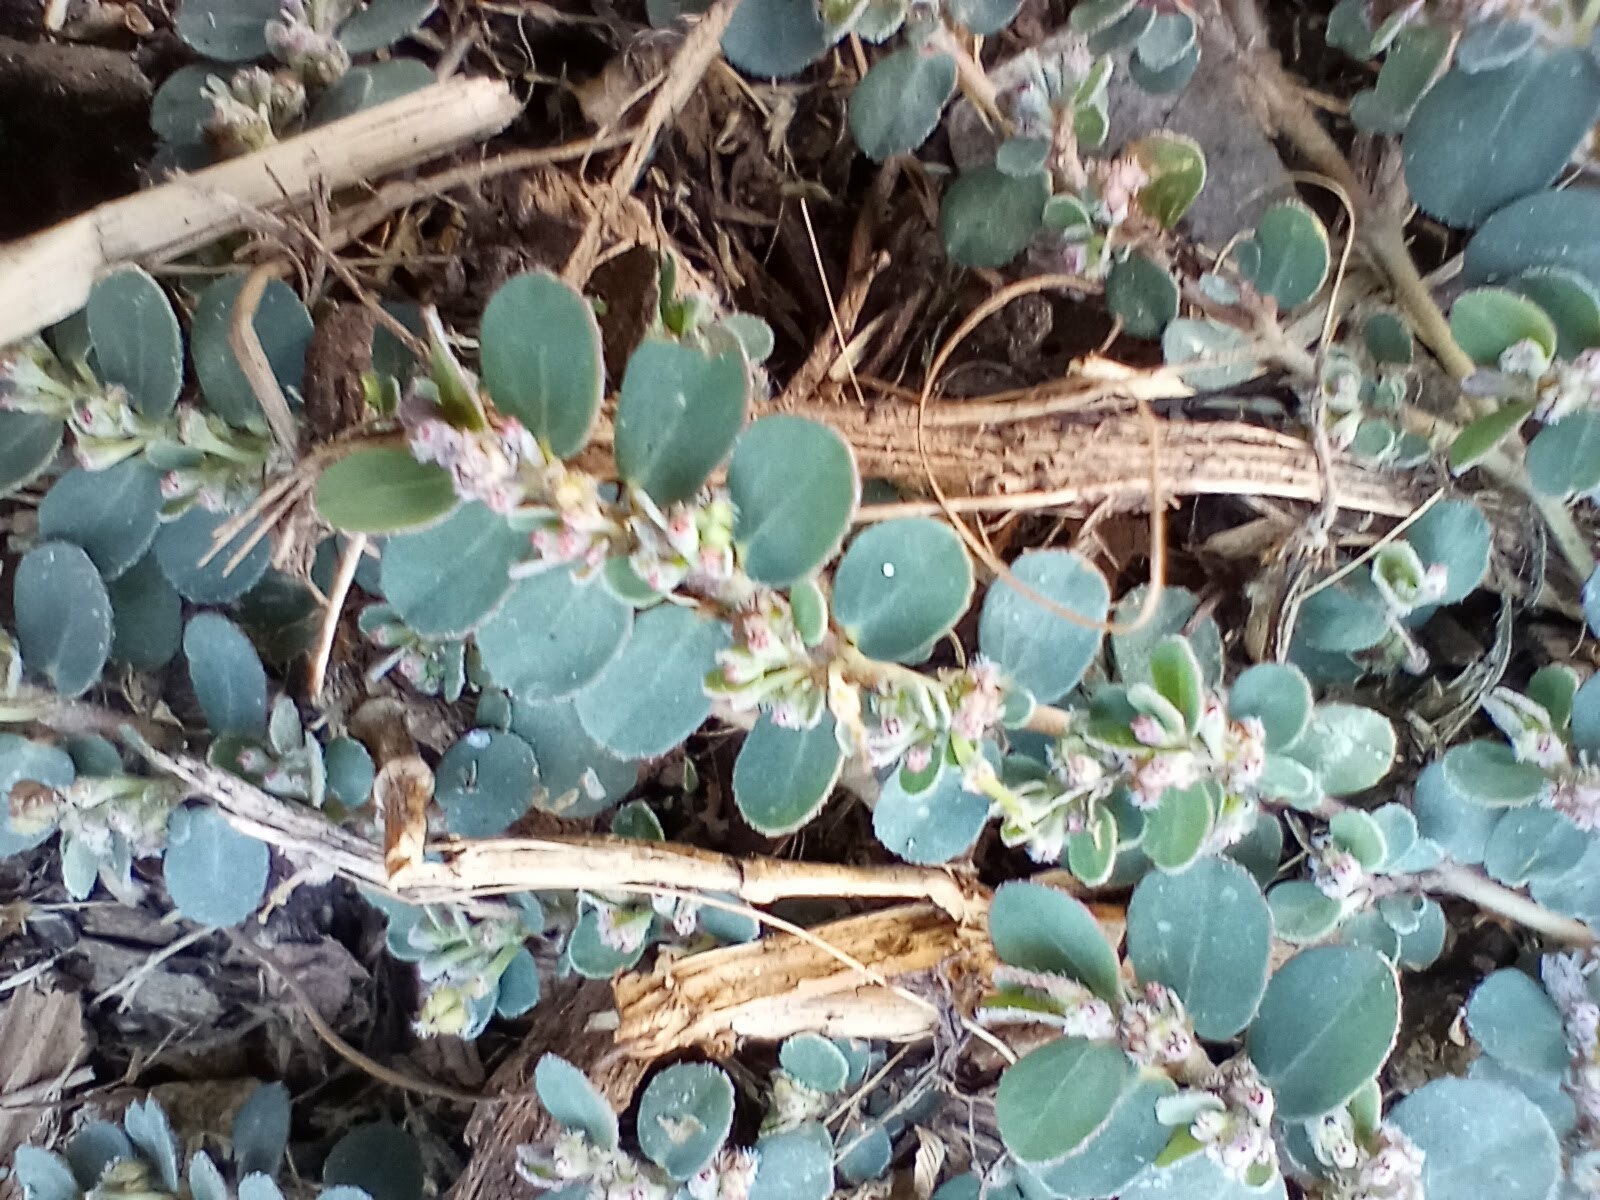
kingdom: Plantae
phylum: Tracheophyta
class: Magnoliopsida
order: Malpighiales
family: Euphorbiaceae
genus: Euphorbia
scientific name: Euphorbia prostrata
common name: Prostrate sandmat
